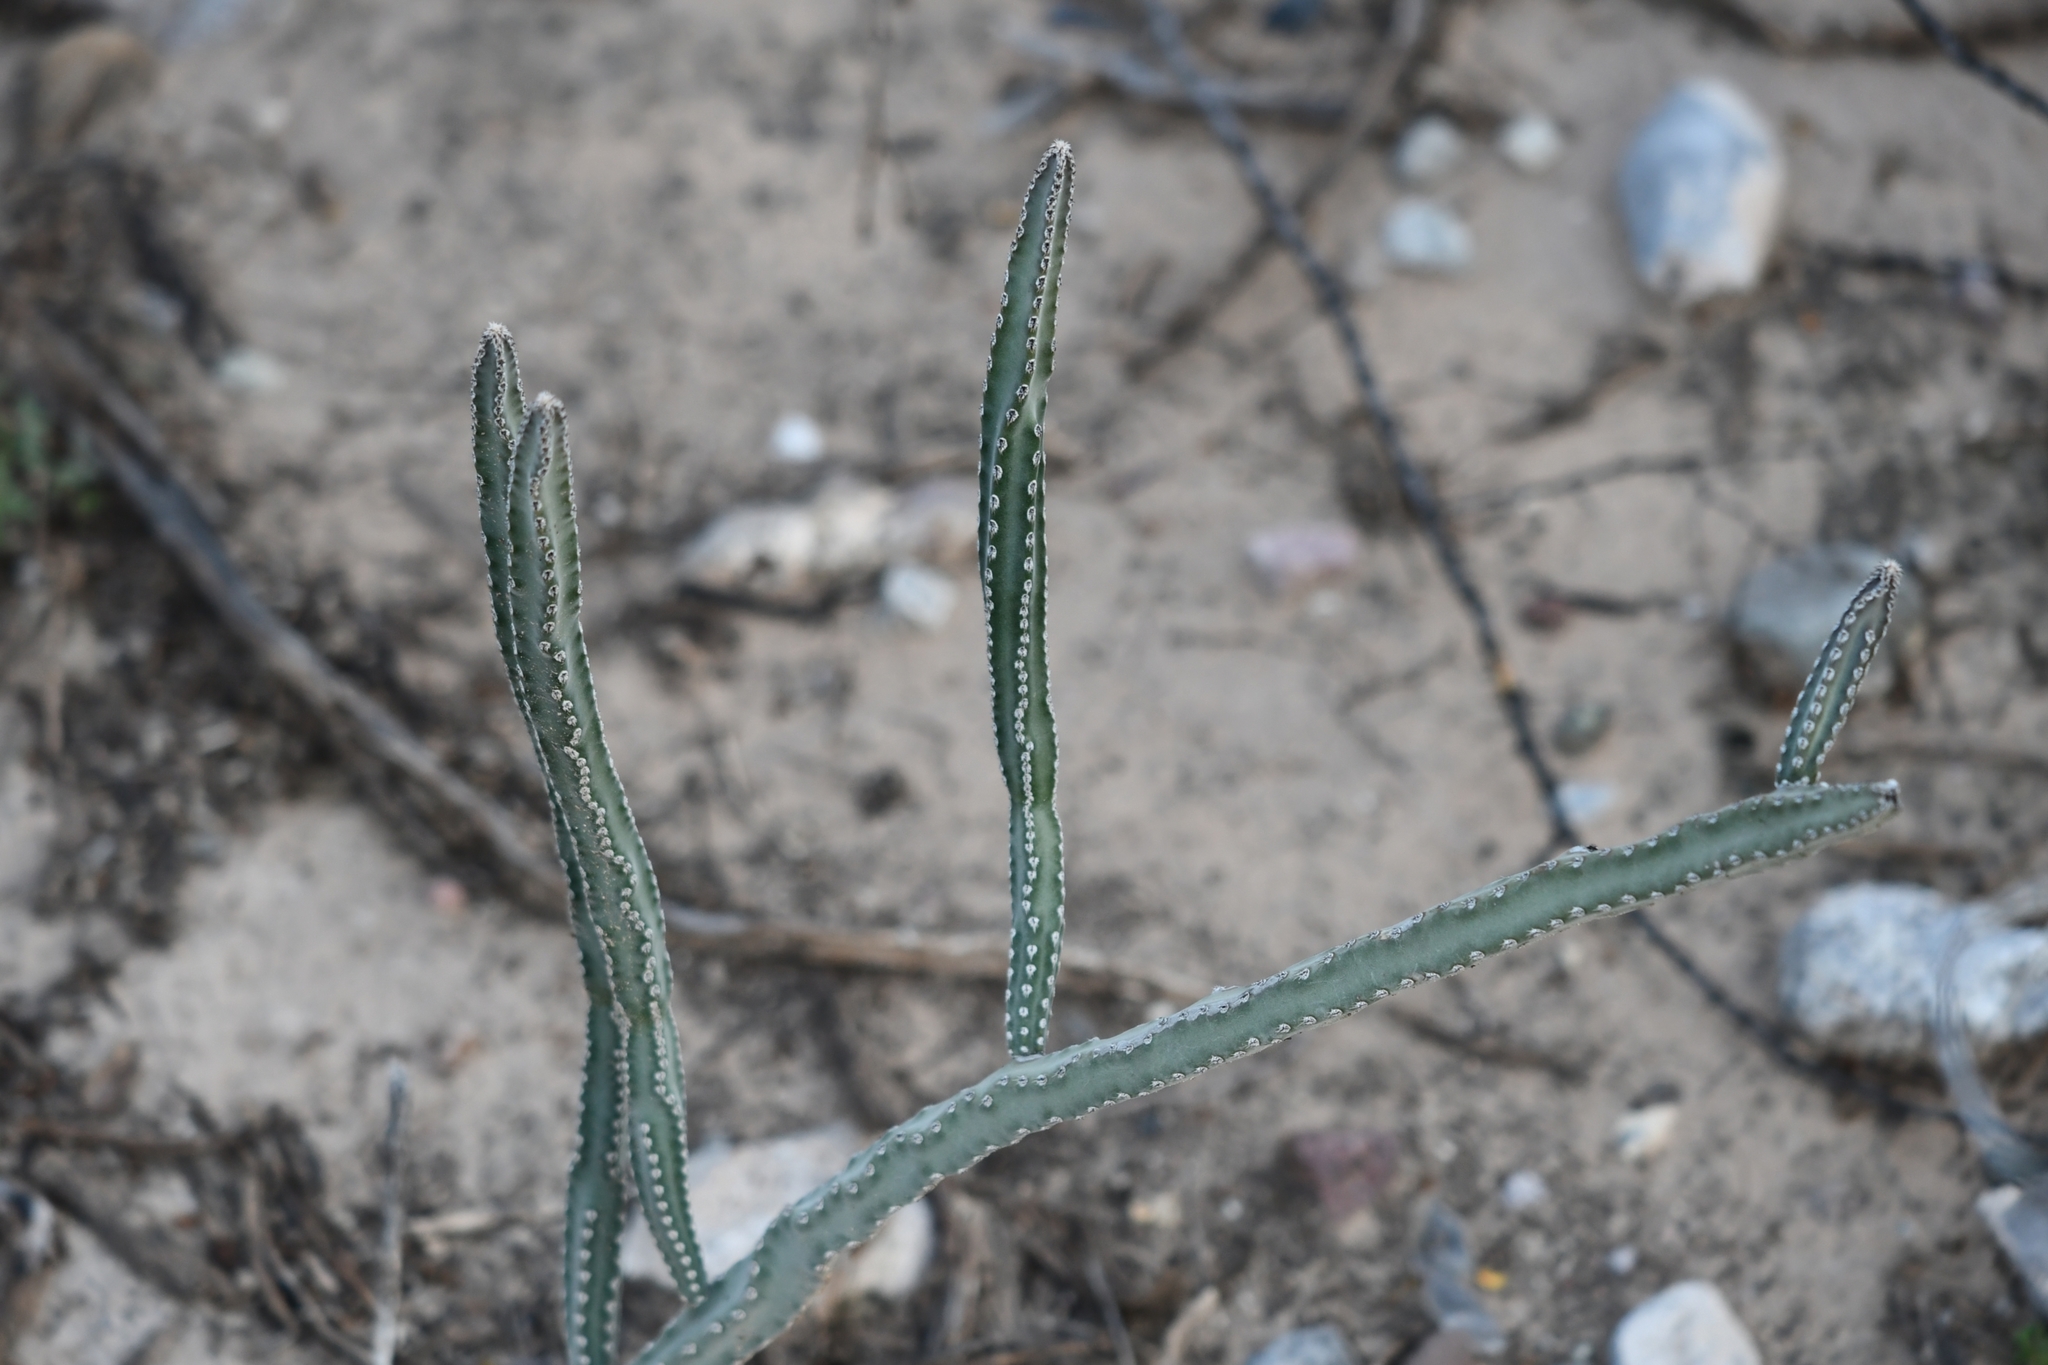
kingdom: Plantae
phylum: Tracheophyta
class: Magnoliopsida
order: Caryophyllales
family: Cactaceae
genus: Peniocereus
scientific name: Peniocereus greggii
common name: Desert night-blooming cereus
